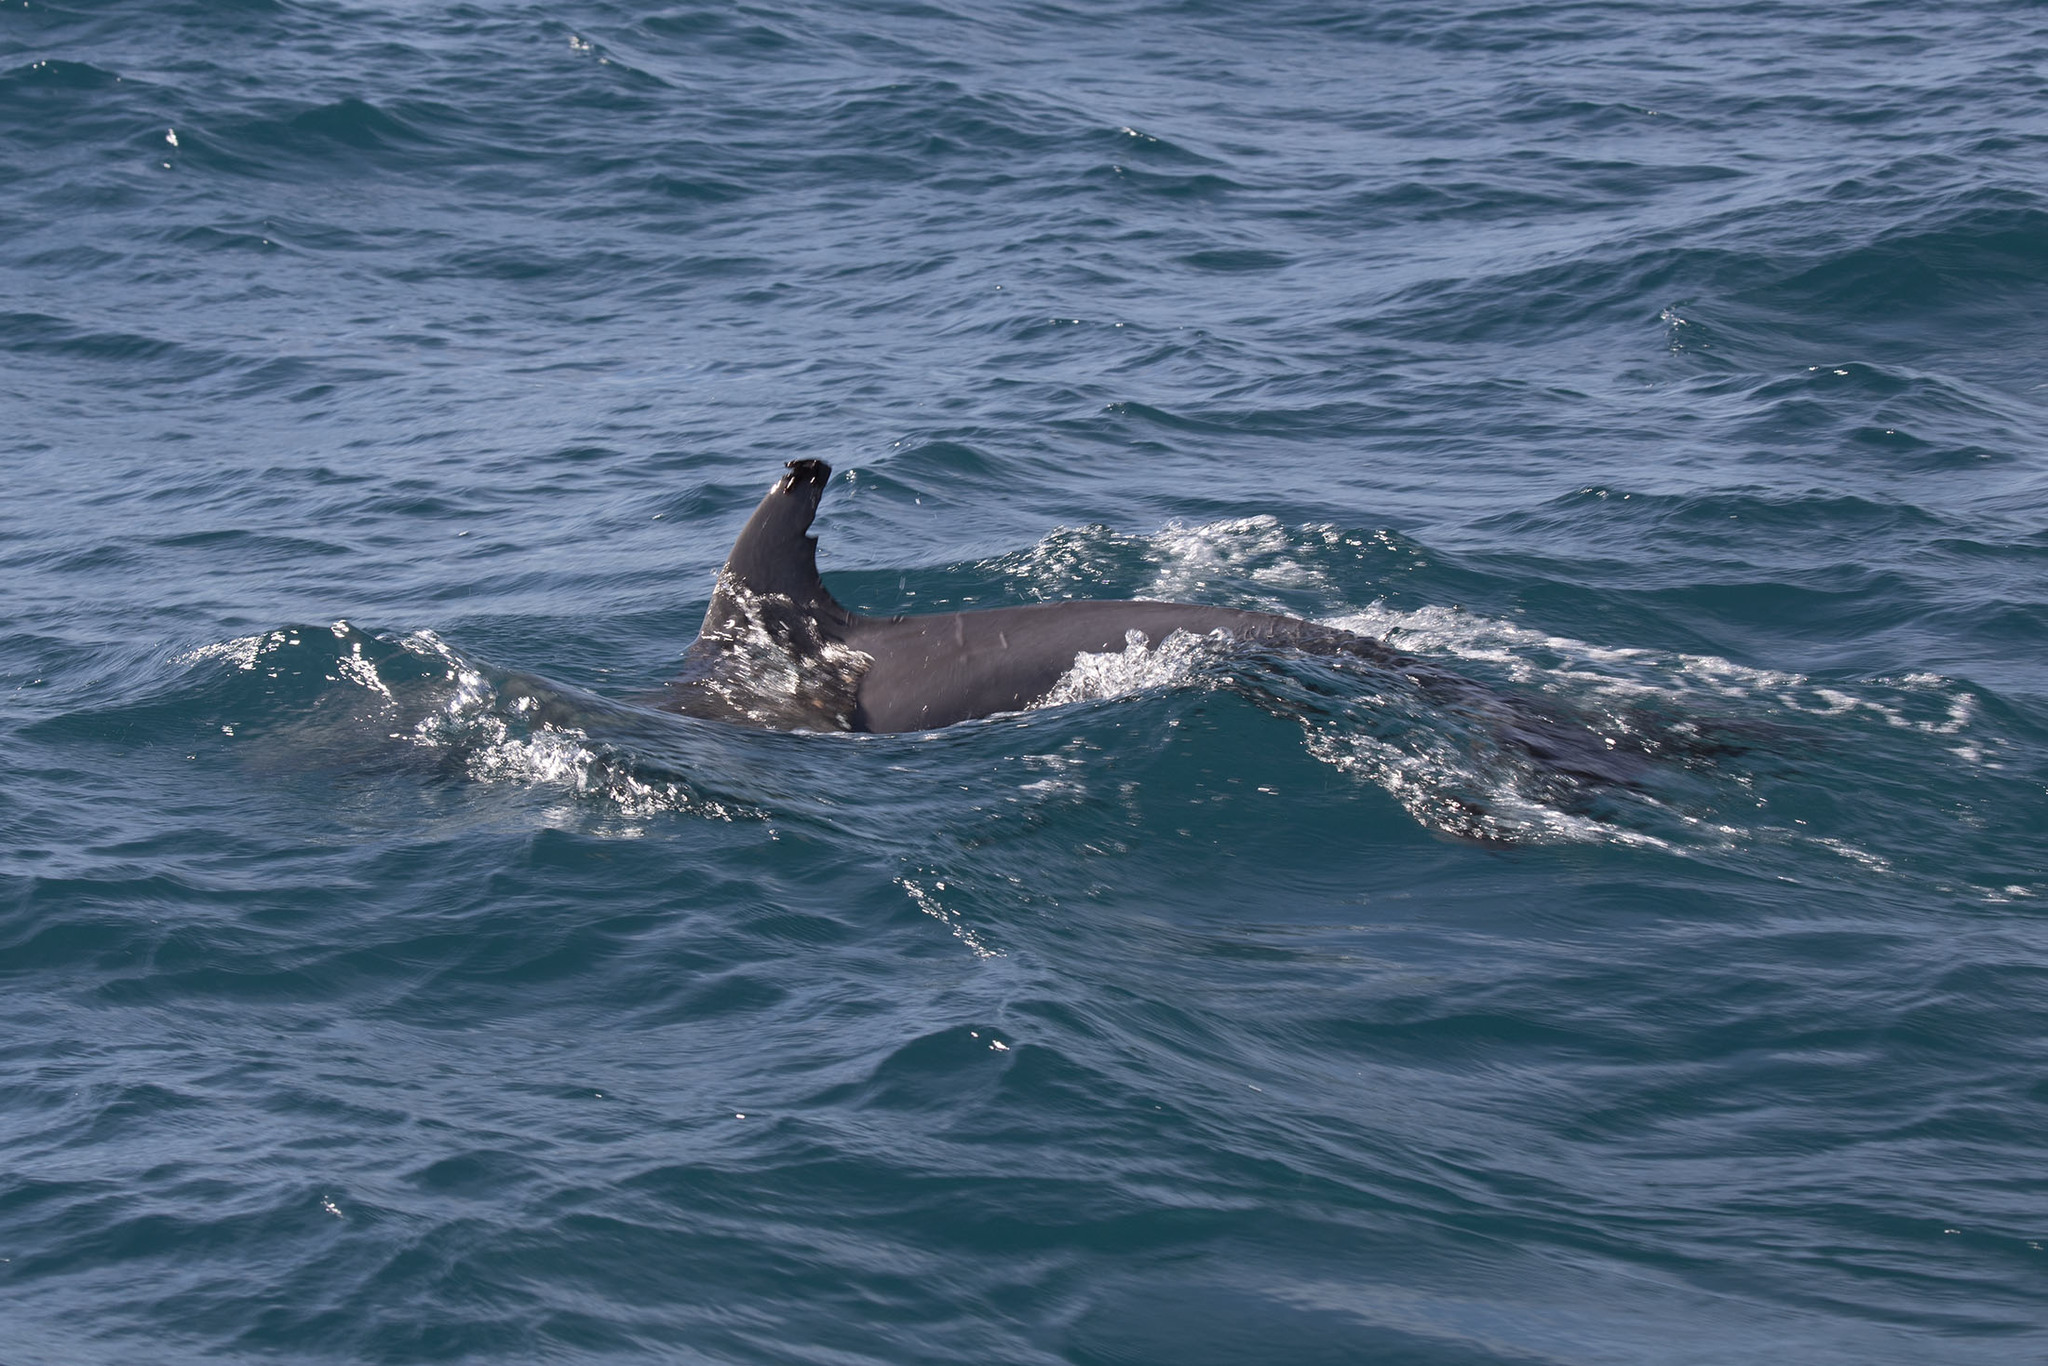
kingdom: Animalia
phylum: Chordata
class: Mammalia
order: Cetacea
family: Delphinidae
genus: Tursiops
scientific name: Tursiops truncatus
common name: Bottlenose dolphin
